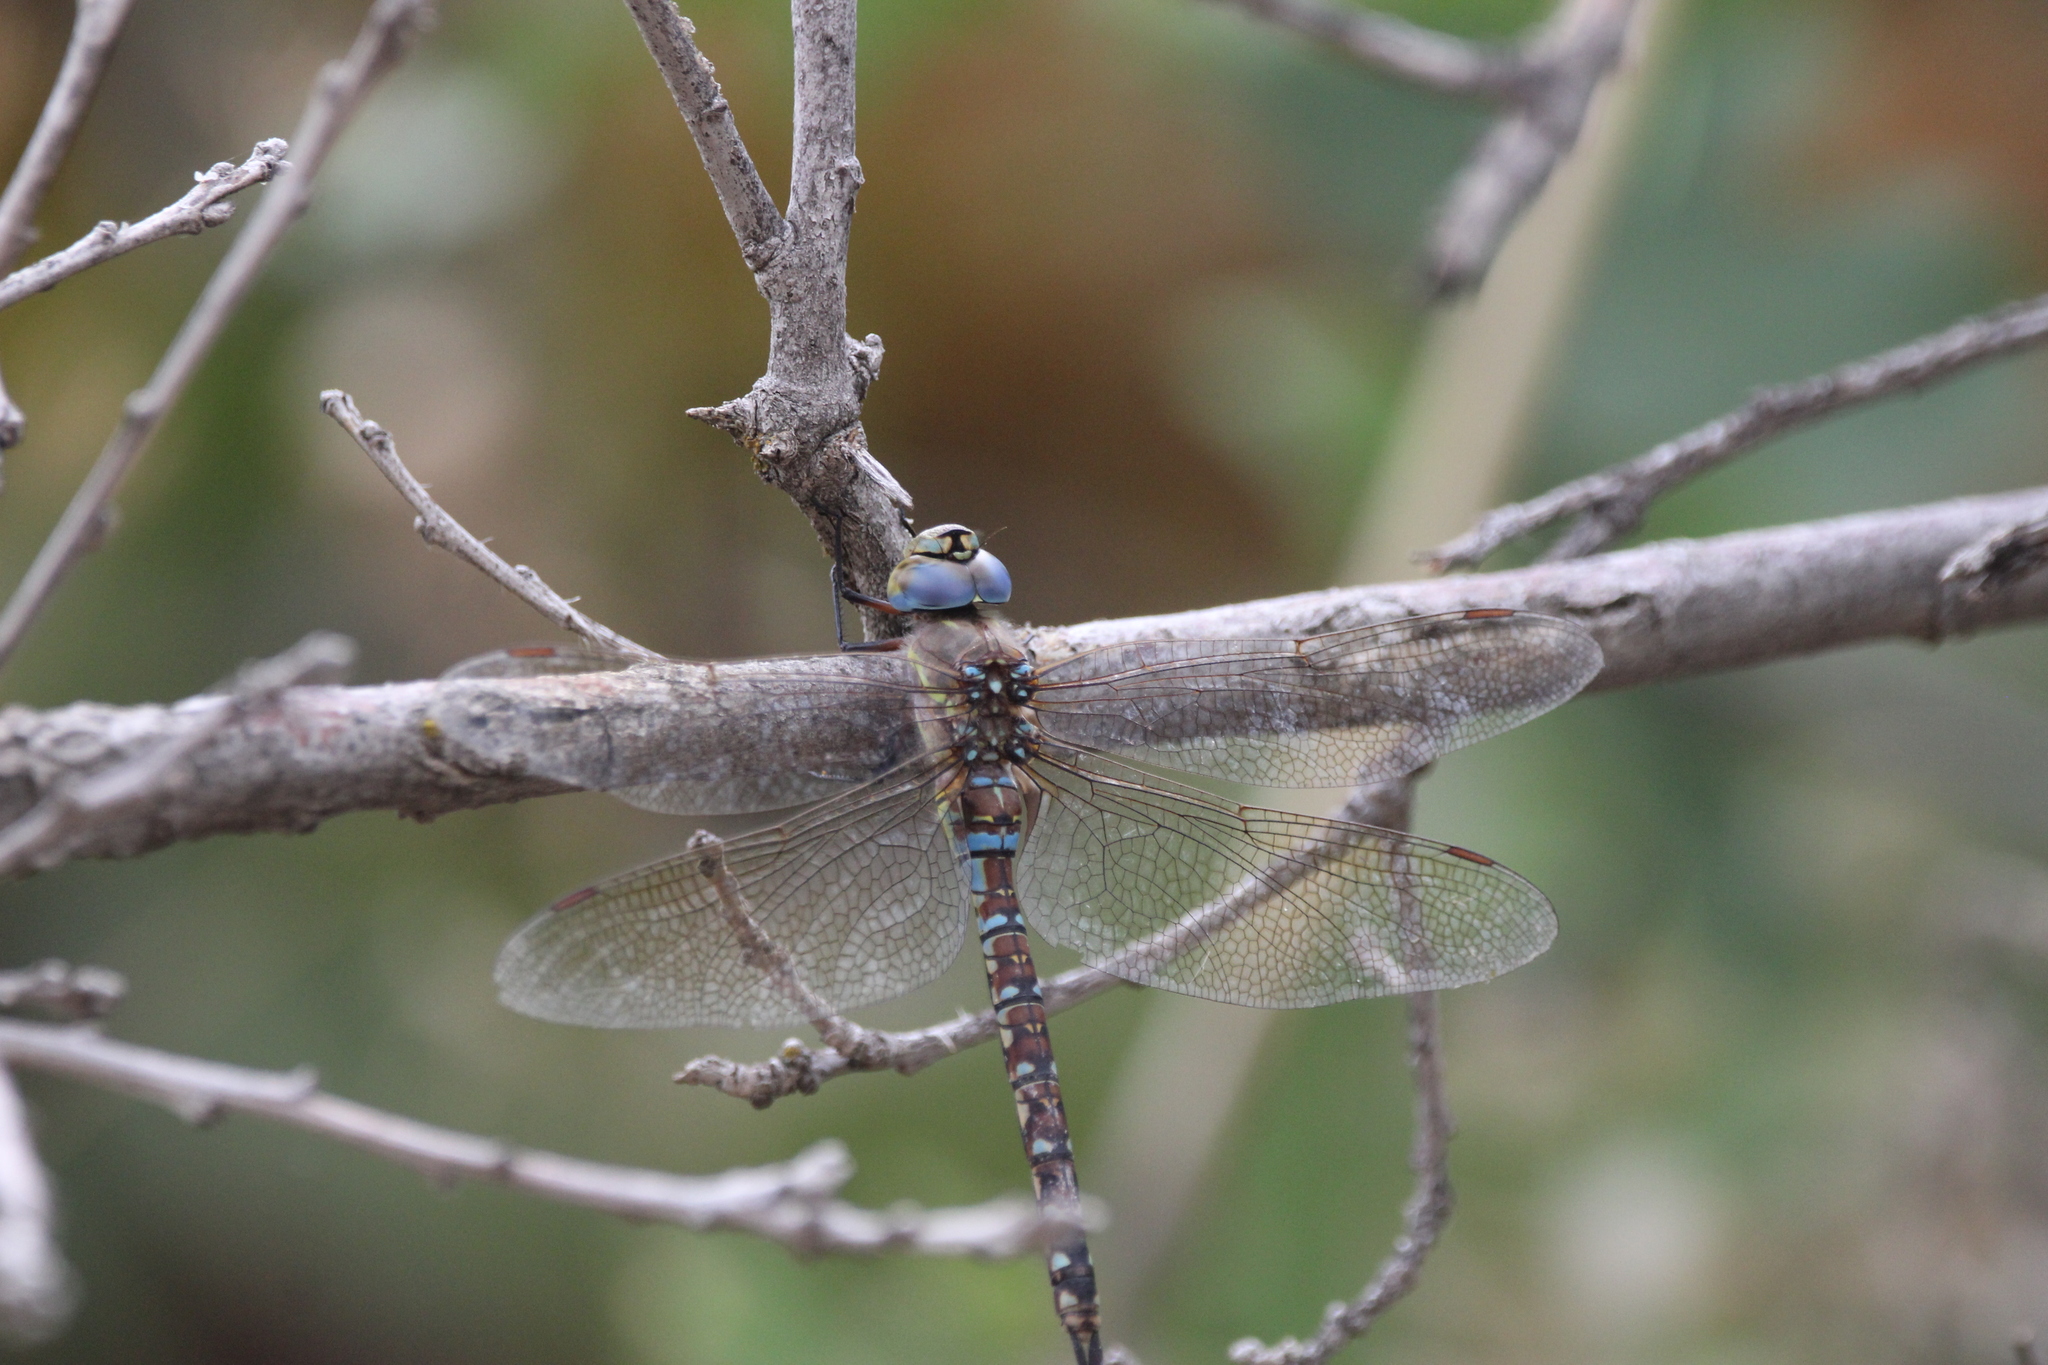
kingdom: Animalia
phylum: Arthropoda
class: Insecta
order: Odonata
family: Aeshnidae
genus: Rhionaeschna
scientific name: Rhionaeschna multicolor
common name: Blue-eyed darner
